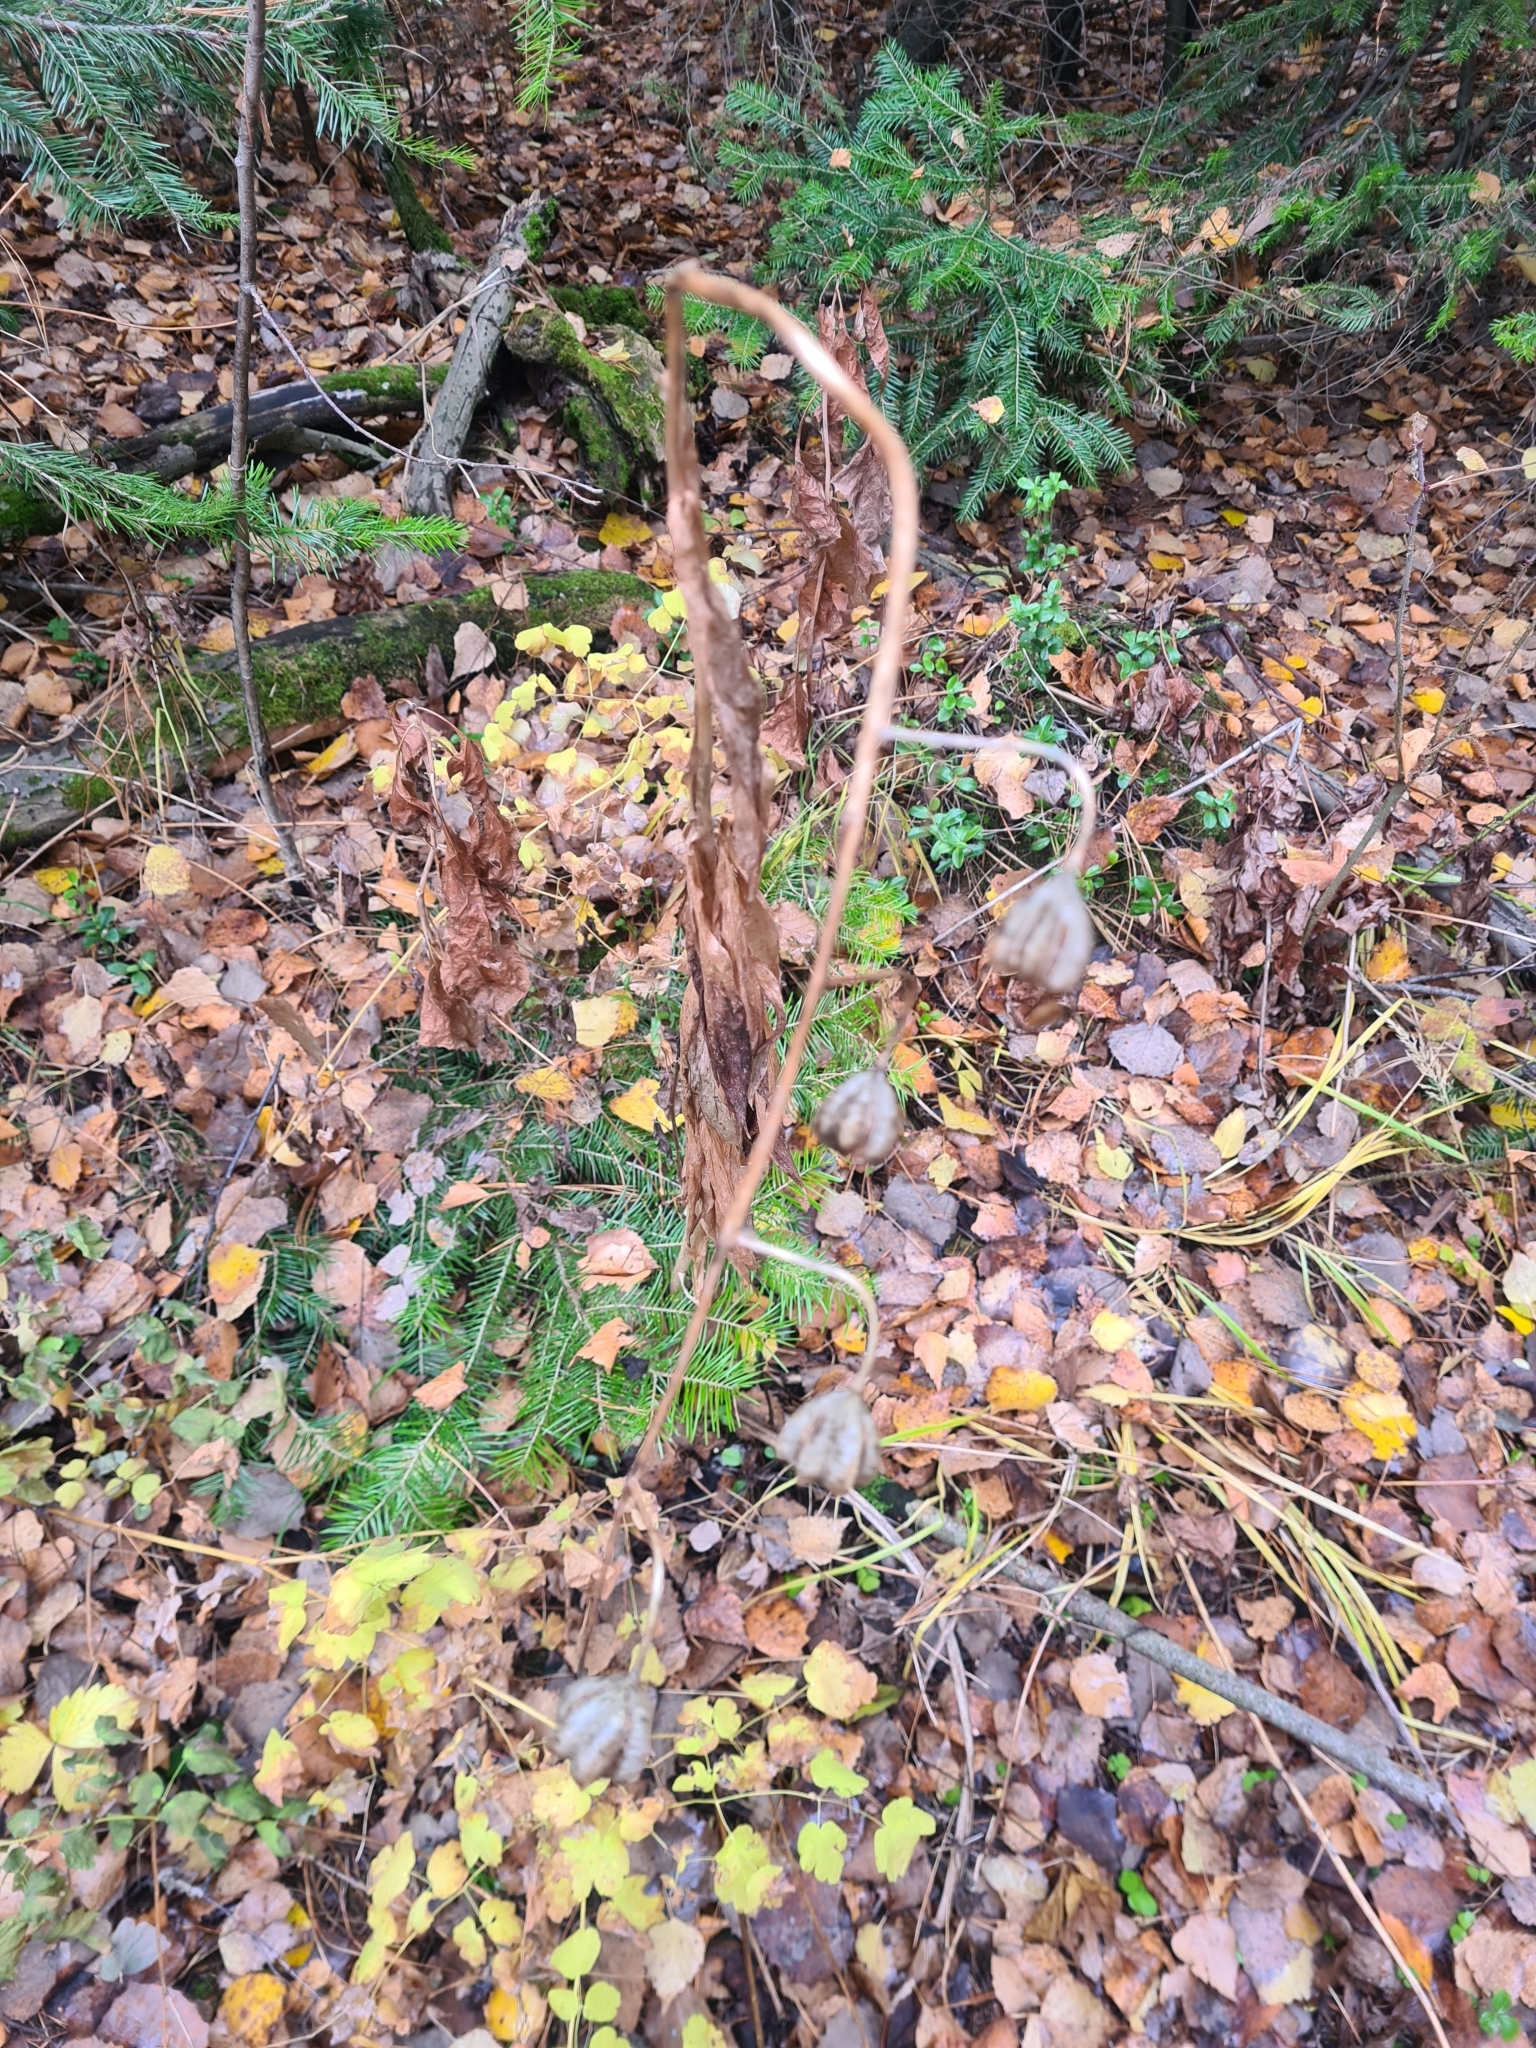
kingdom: Plantae
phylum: Tracheophyta
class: Liliopsida
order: Liliales
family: Liliaceae
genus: Lilium
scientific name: Lilium martagon
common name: Martagon lily
